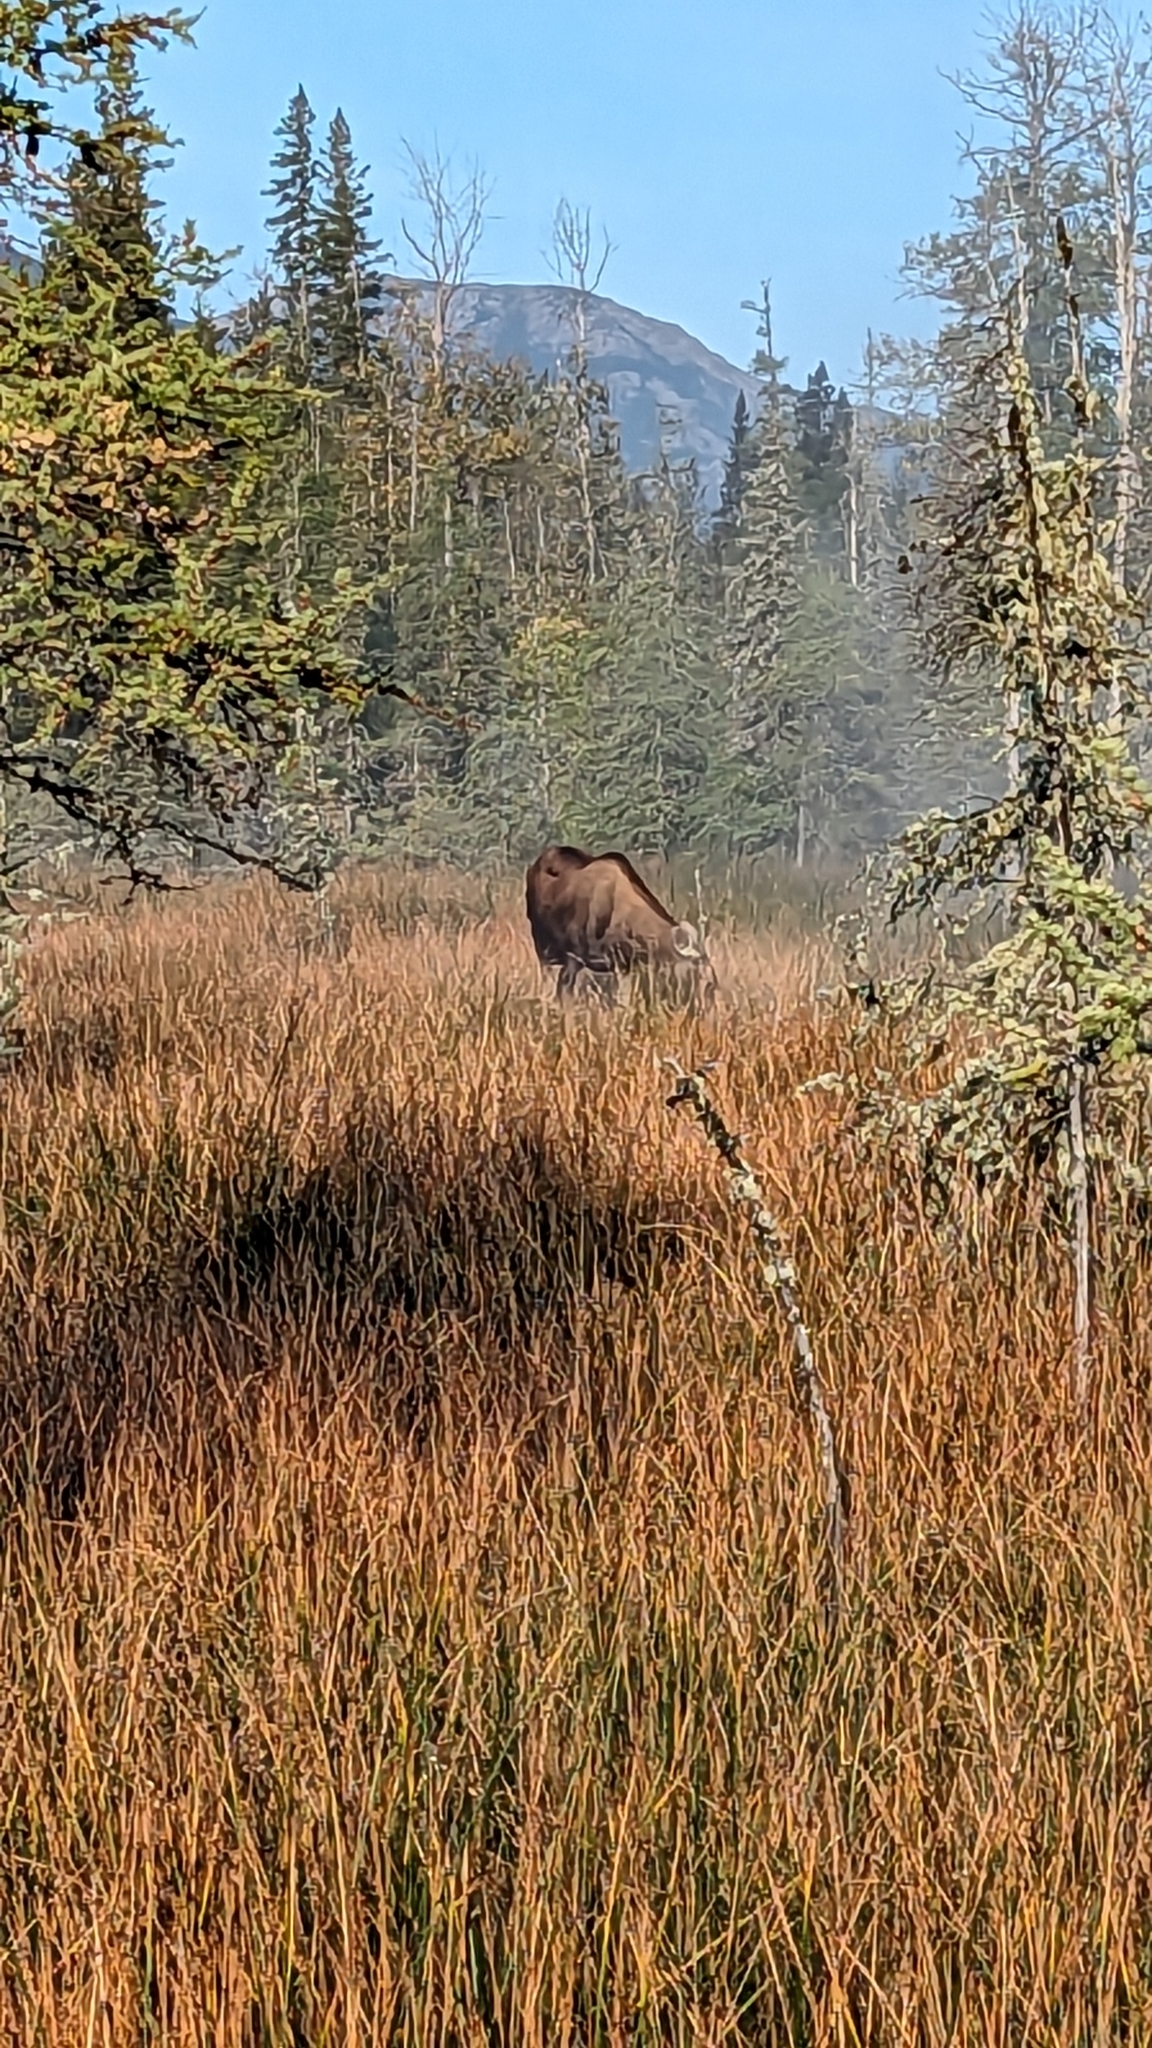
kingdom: Animalia
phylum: Chordata
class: Mammalia
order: Artiodactyla
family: Cervidae
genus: Alces
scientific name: Alces alces
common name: Moose
